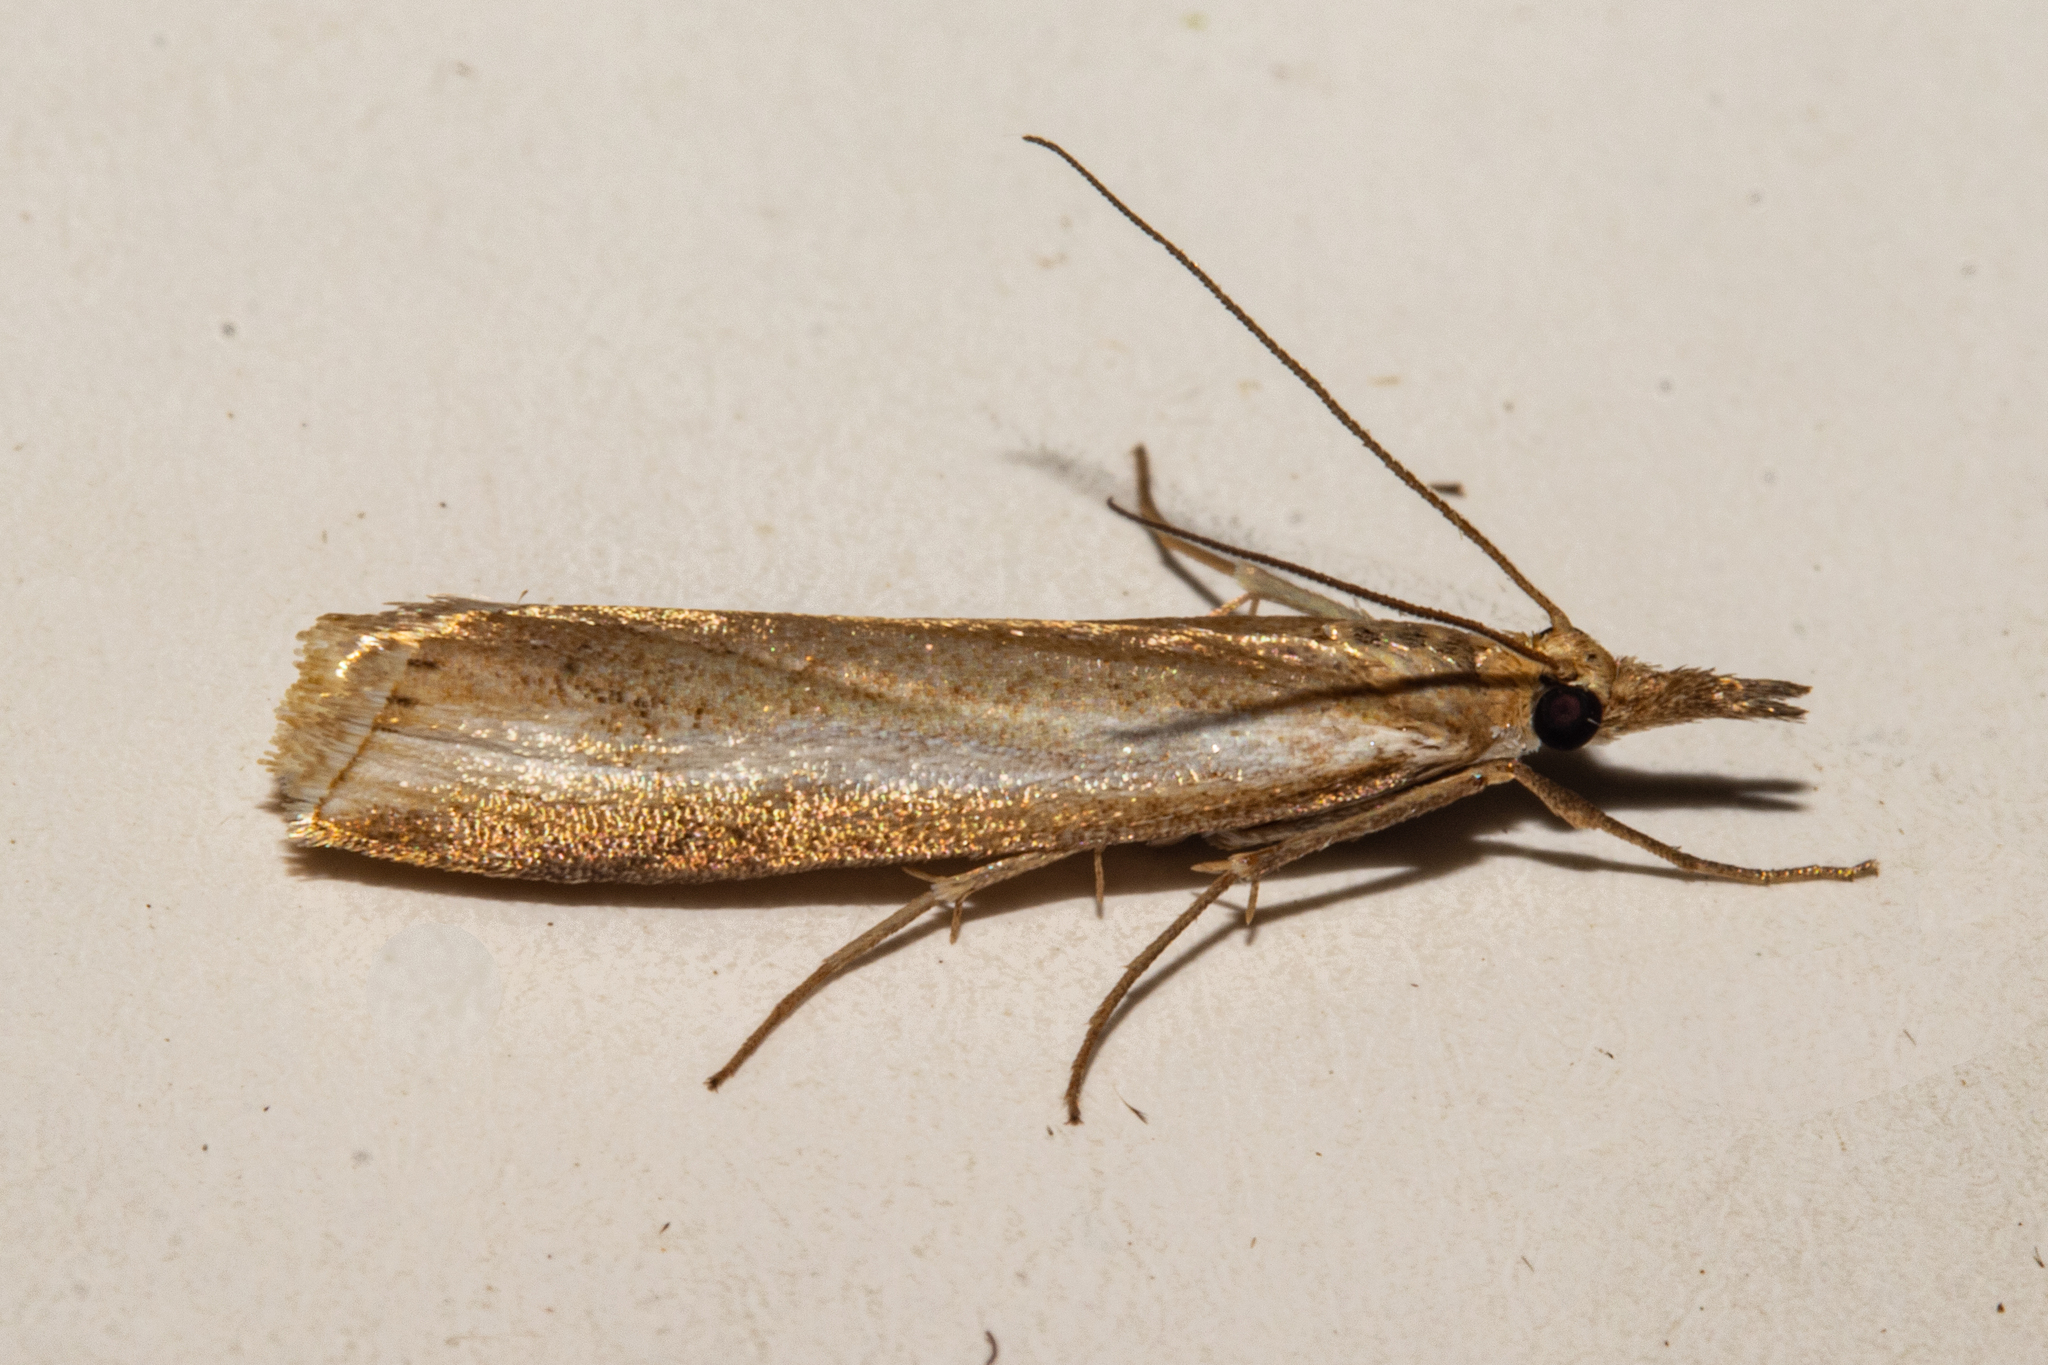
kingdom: Animalia
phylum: Arthropoda
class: Insecta
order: Lepidoptera
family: Crambidae
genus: Orocrambus
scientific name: Orocrambus vulgaris
